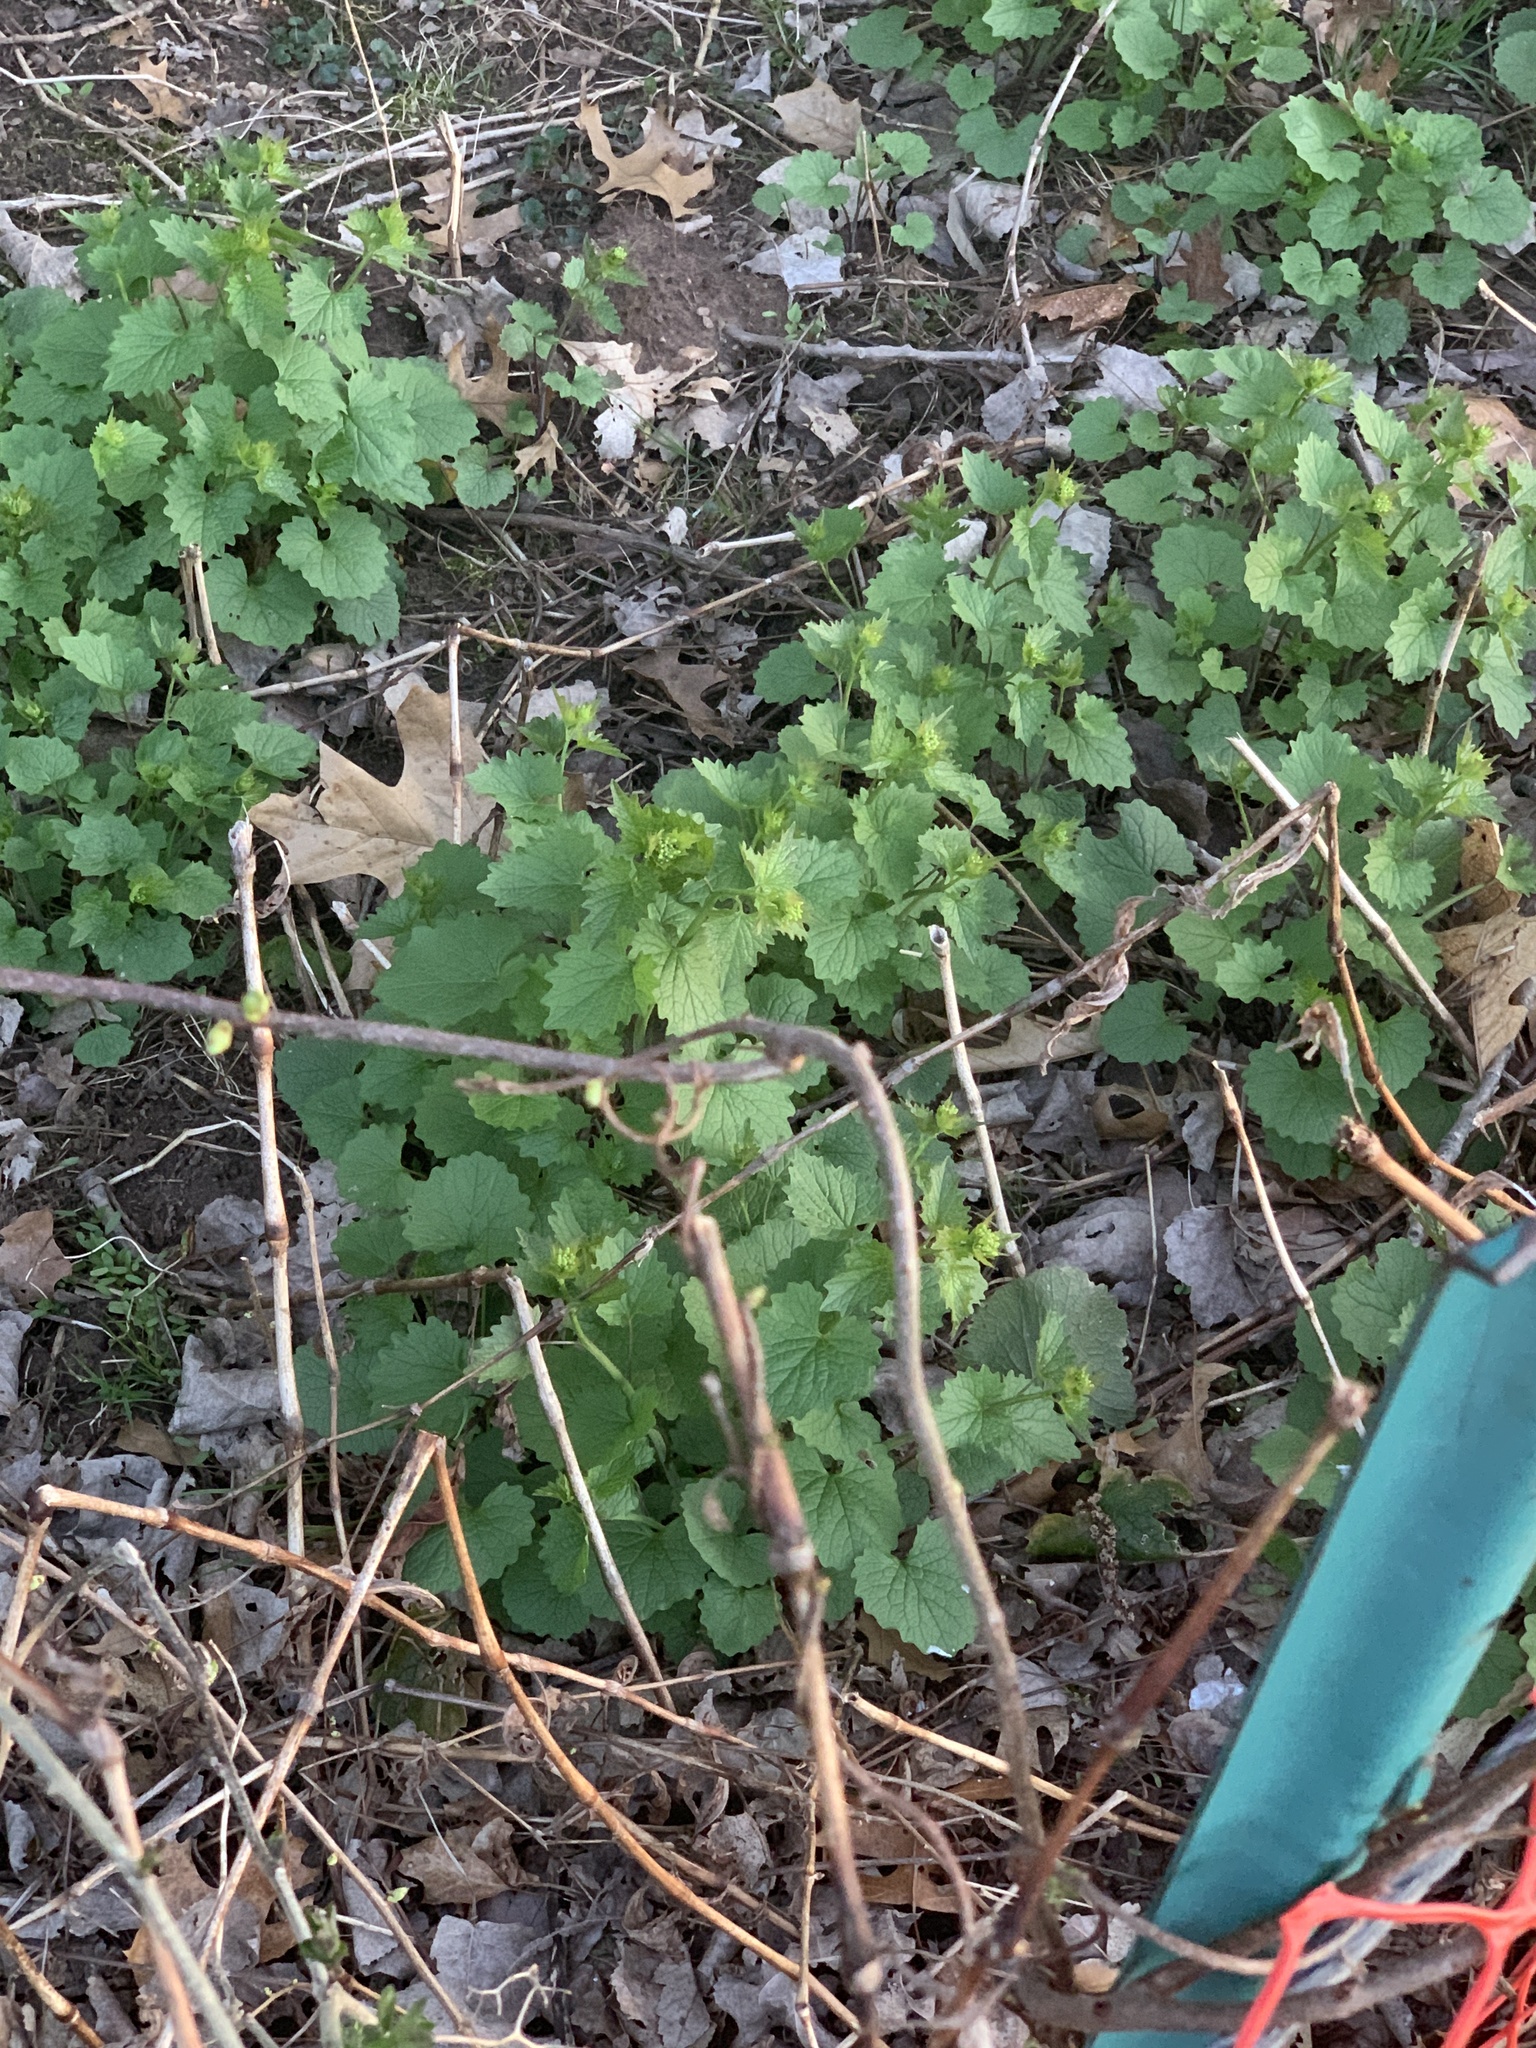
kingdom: Plantae
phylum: Tracheophyta
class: Magnoliopsida
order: Brassicales
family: Brassicaceae
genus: Alliaria
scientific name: Alliaria petiolata
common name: Garlic mustard
